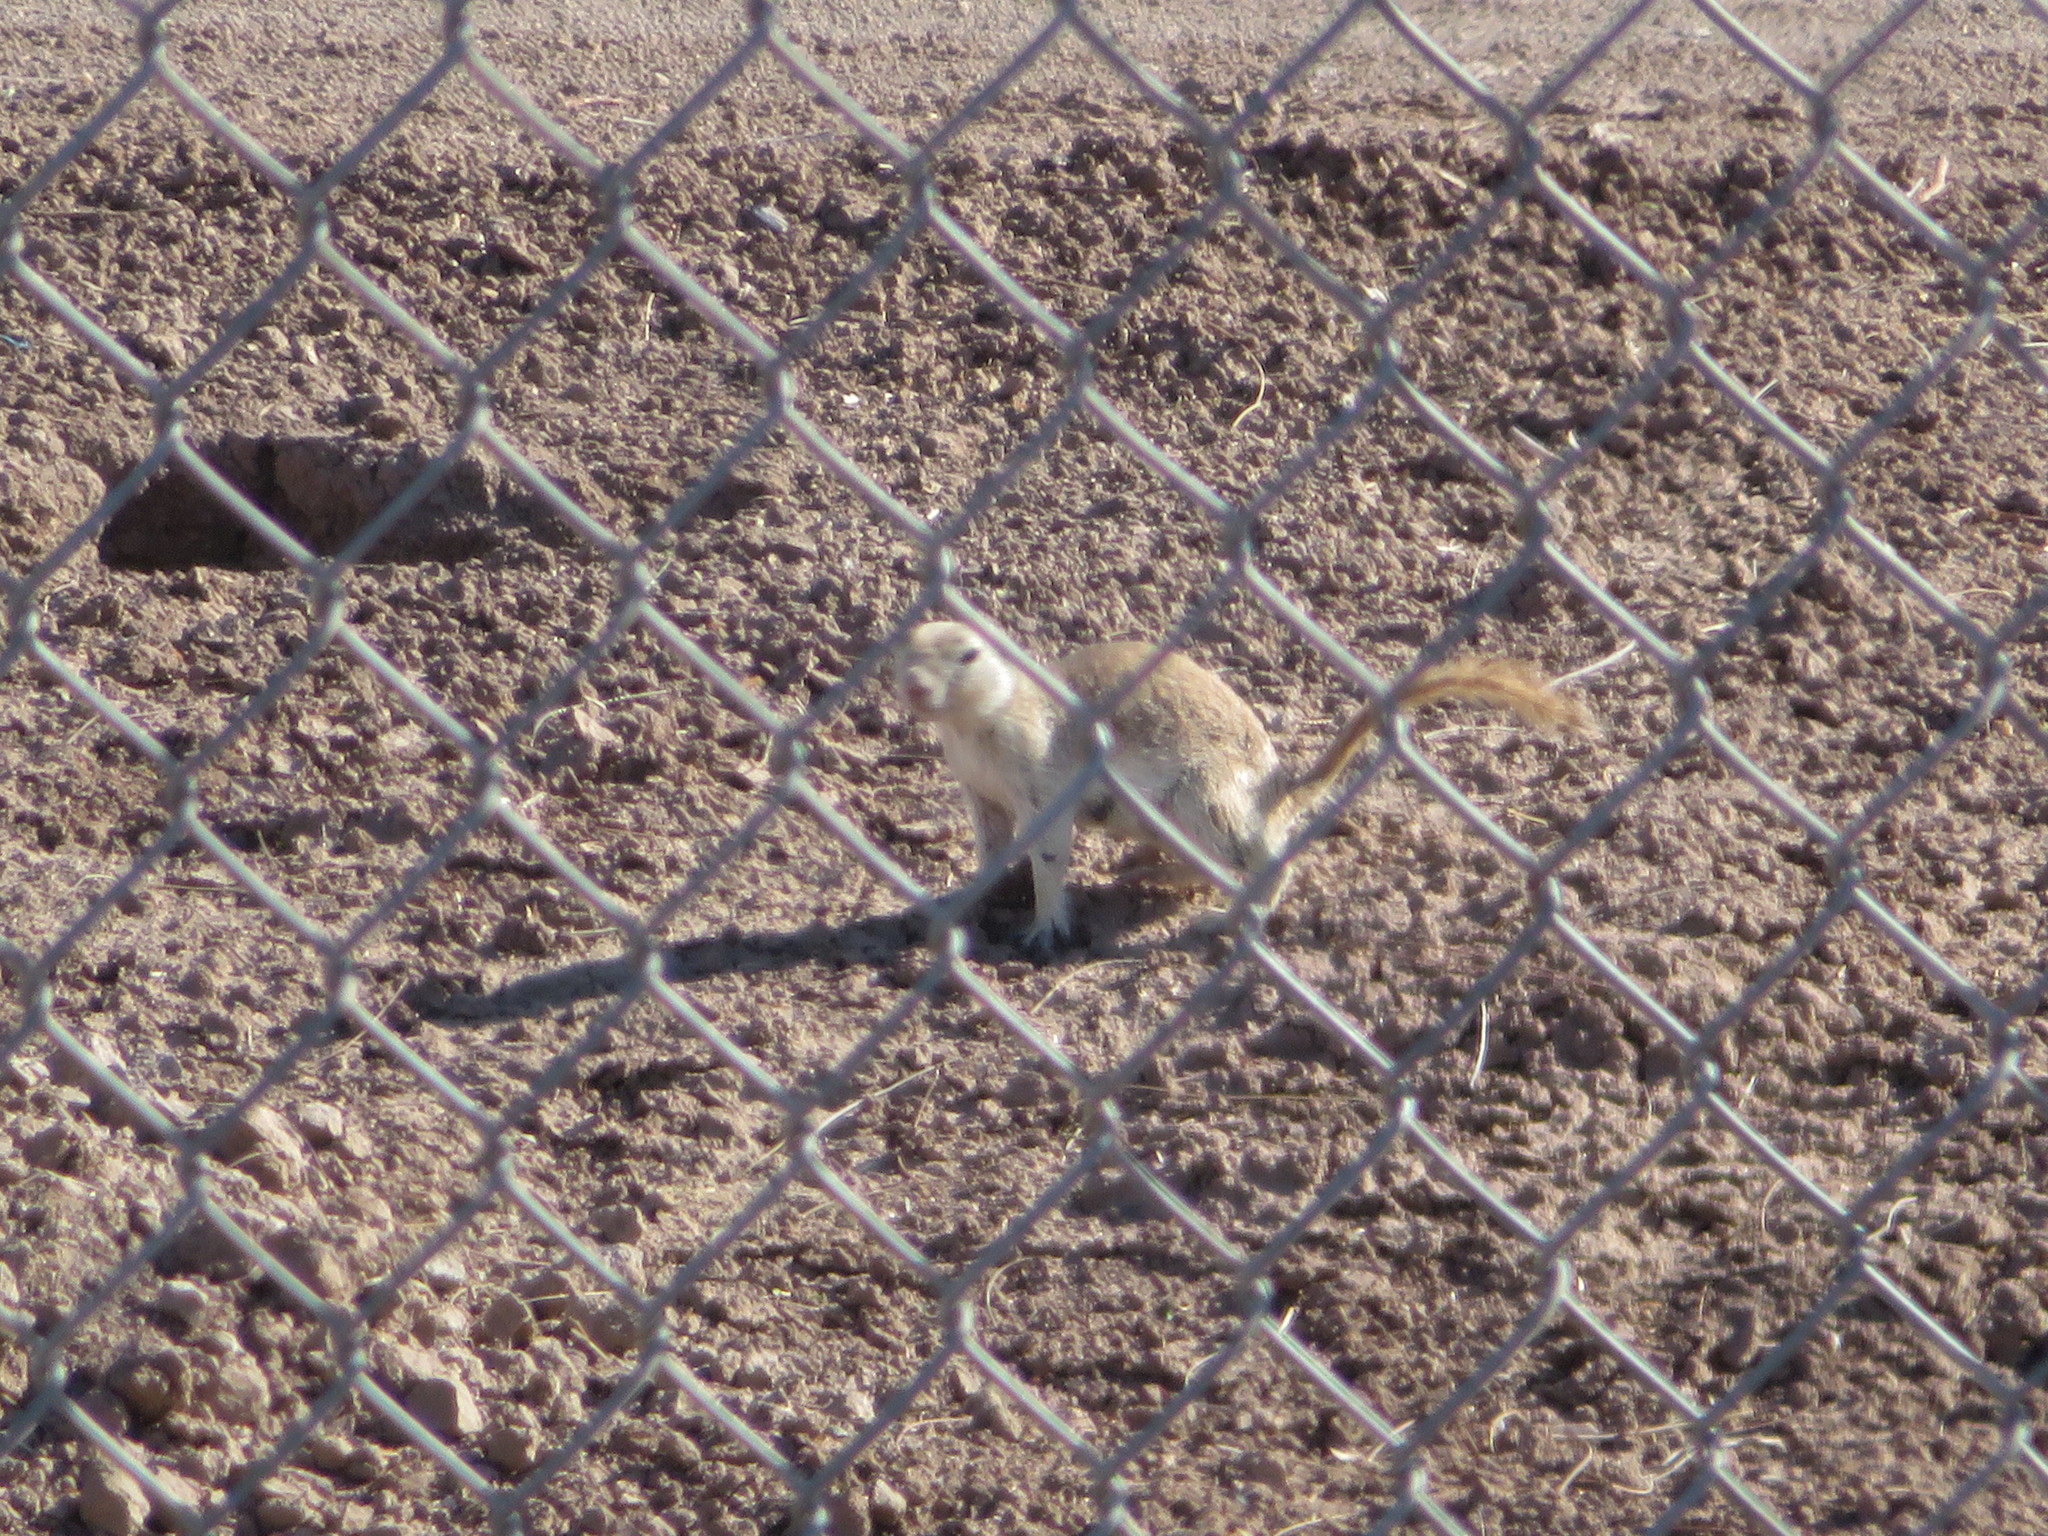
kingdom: Animalia
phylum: Chordata
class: Mammalia
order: Rodentia
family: Sciuridae
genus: Xerospermophilus
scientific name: Xerospermophilus tereticaudus
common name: Round-tailed ground squirrel
